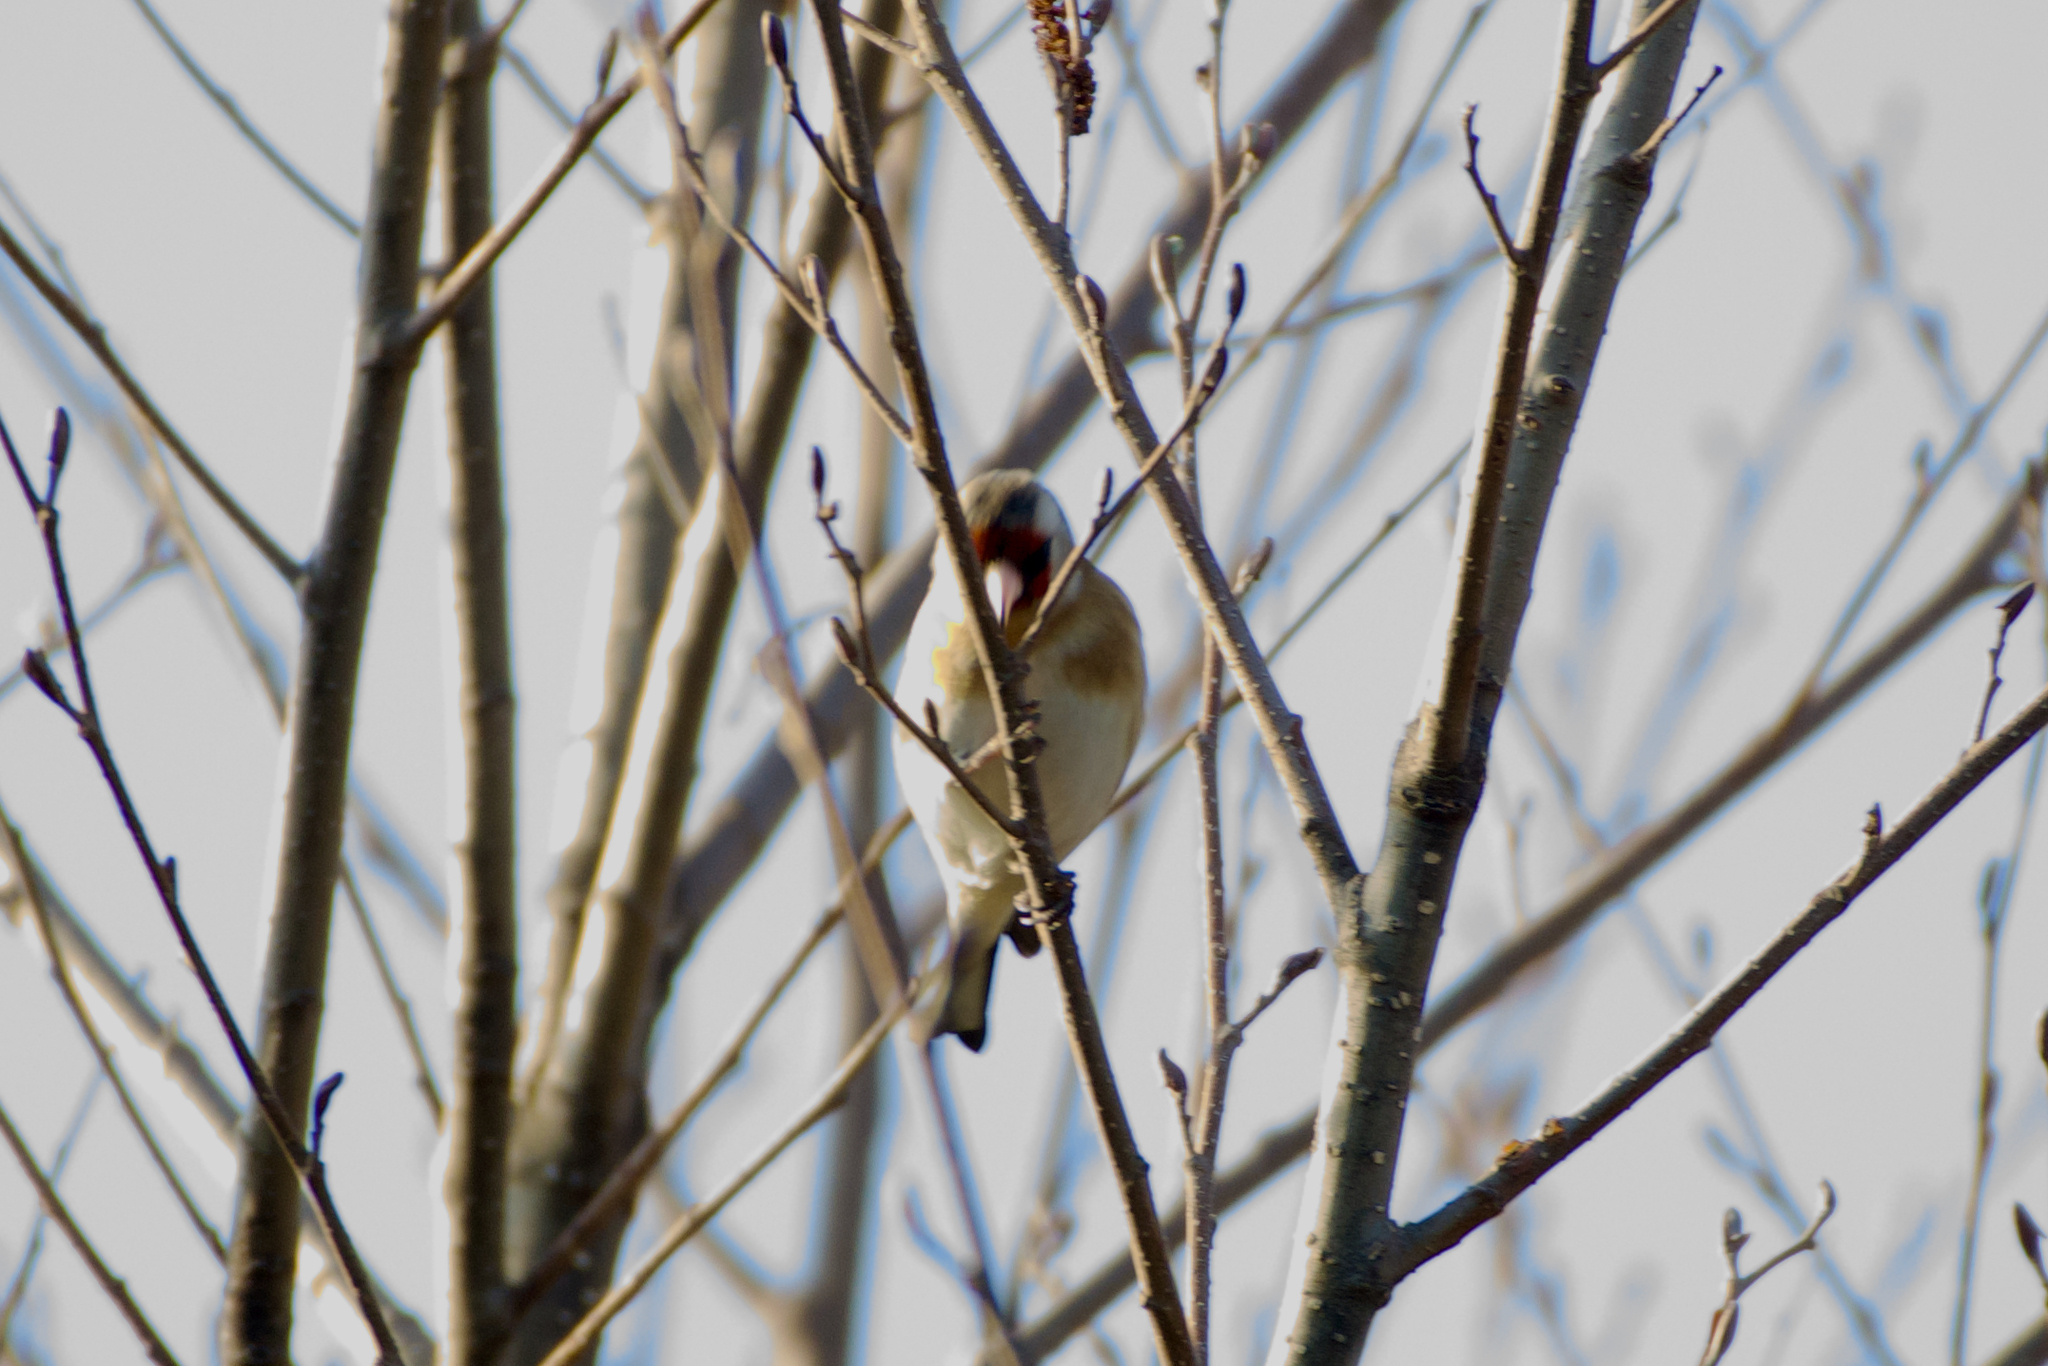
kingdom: Animalia
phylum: Chordata
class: Aves
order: Passeriformes
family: Fringillidae
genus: Carduelis
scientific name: Carduelis carduelis
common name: European goldfinch
